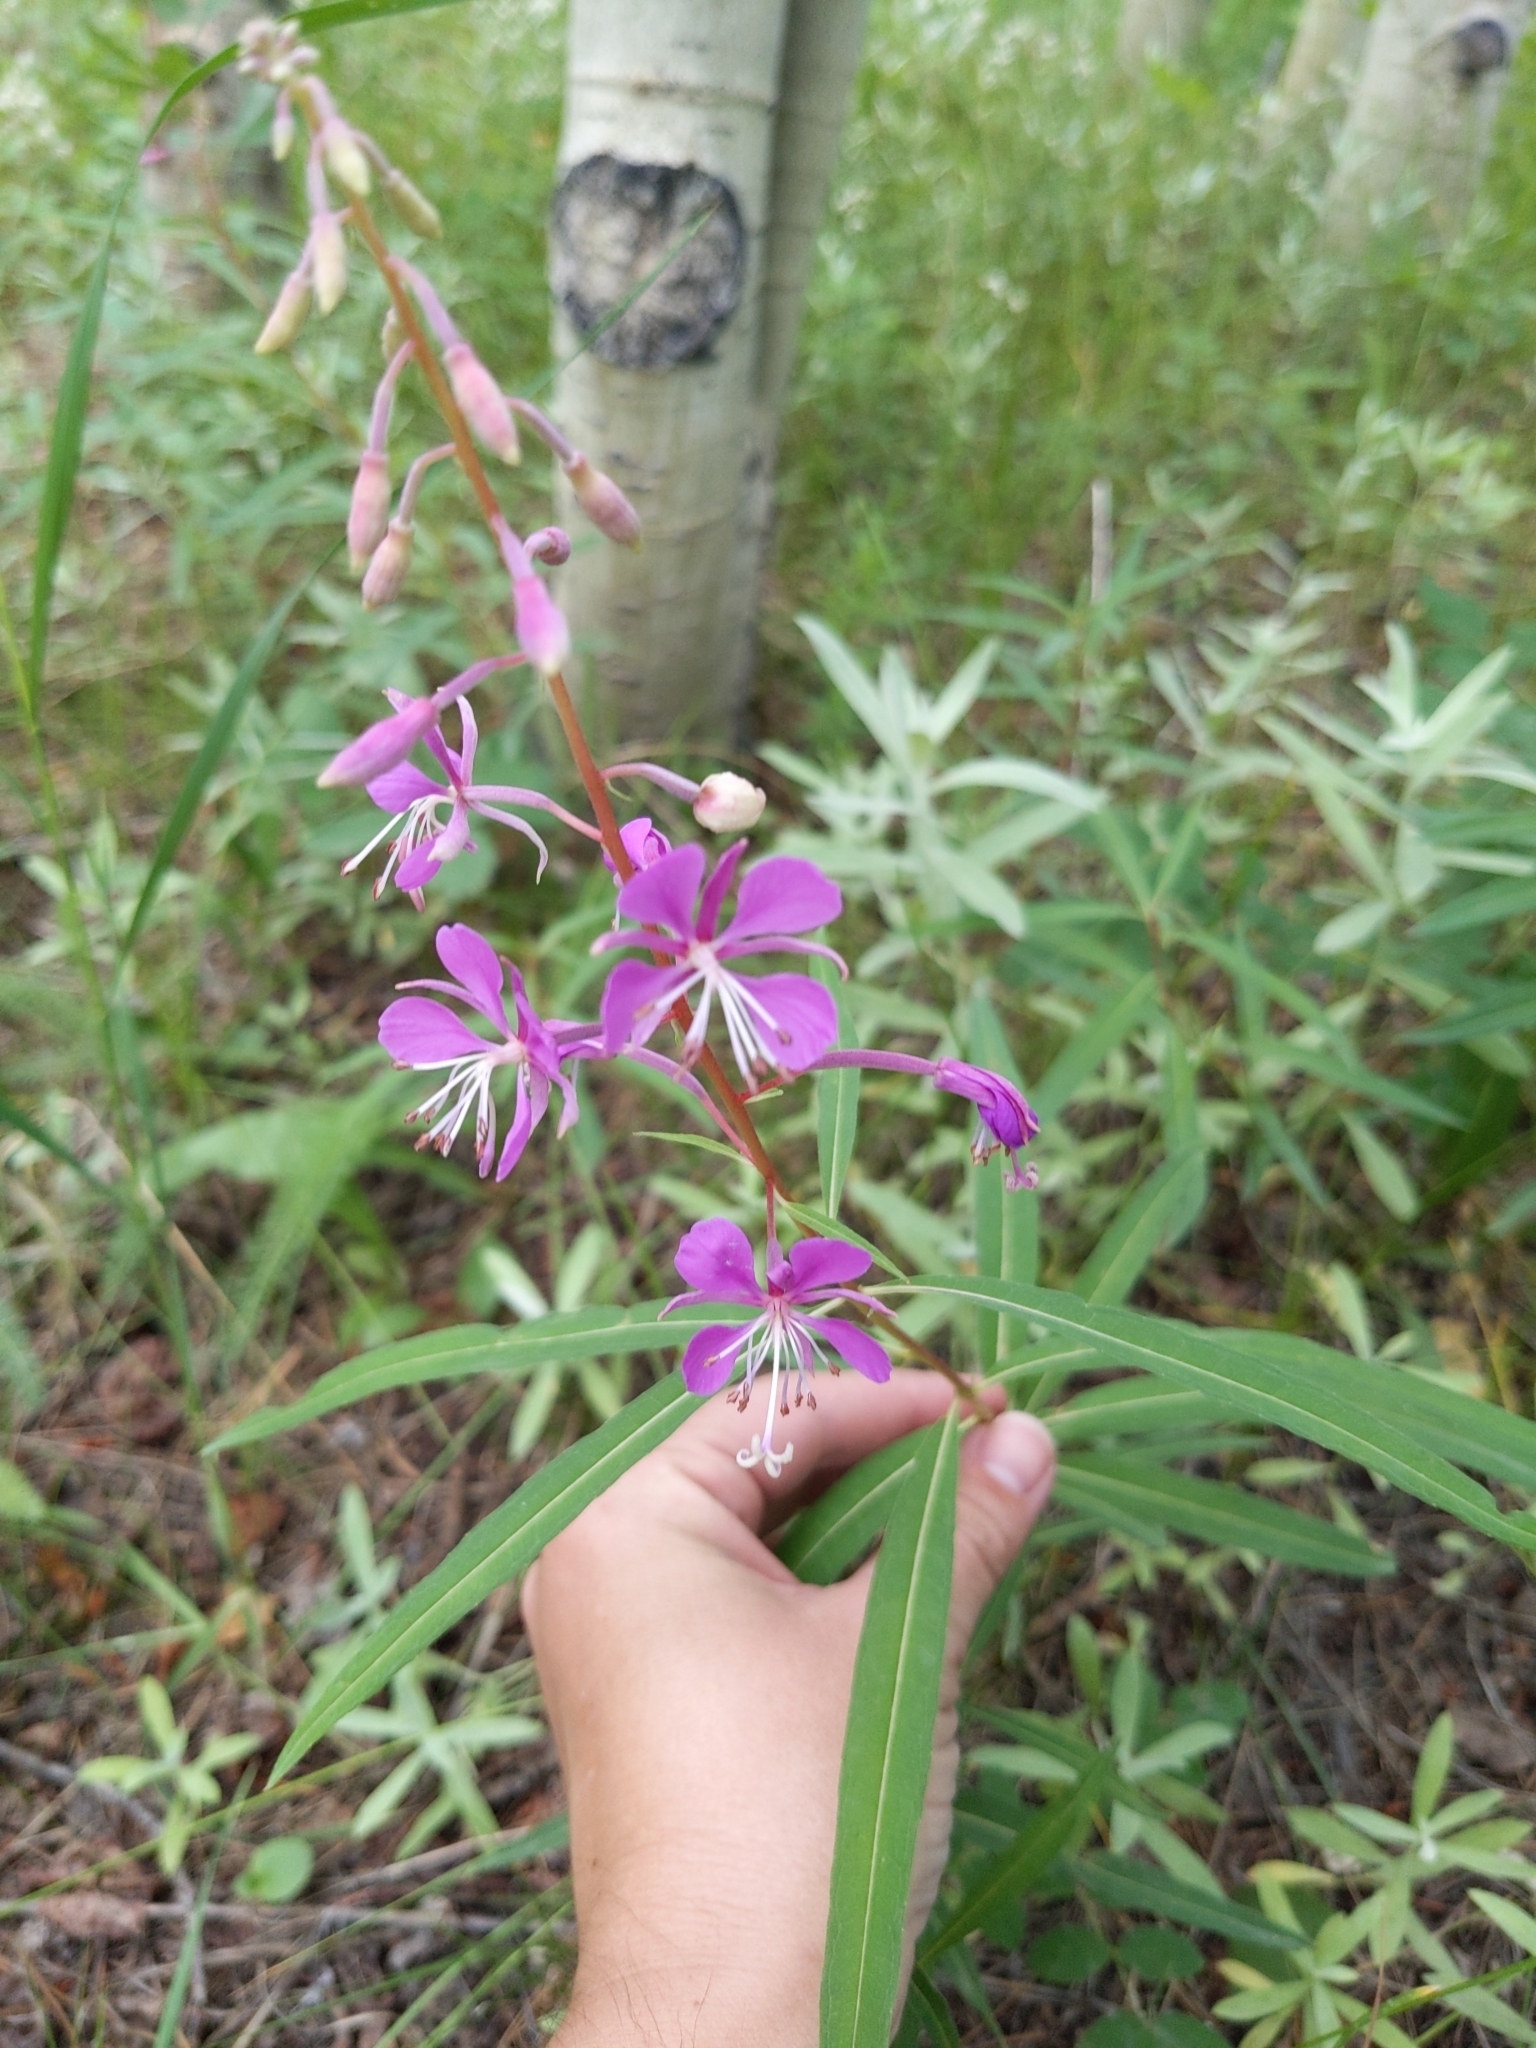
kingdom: Plantae
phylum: Tracheophyta
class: Magnoliopsida
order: Myrtales
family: Onagraceae
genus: Chamaenerion
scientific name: Chamaenerion angustifolium
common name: Fireweed
